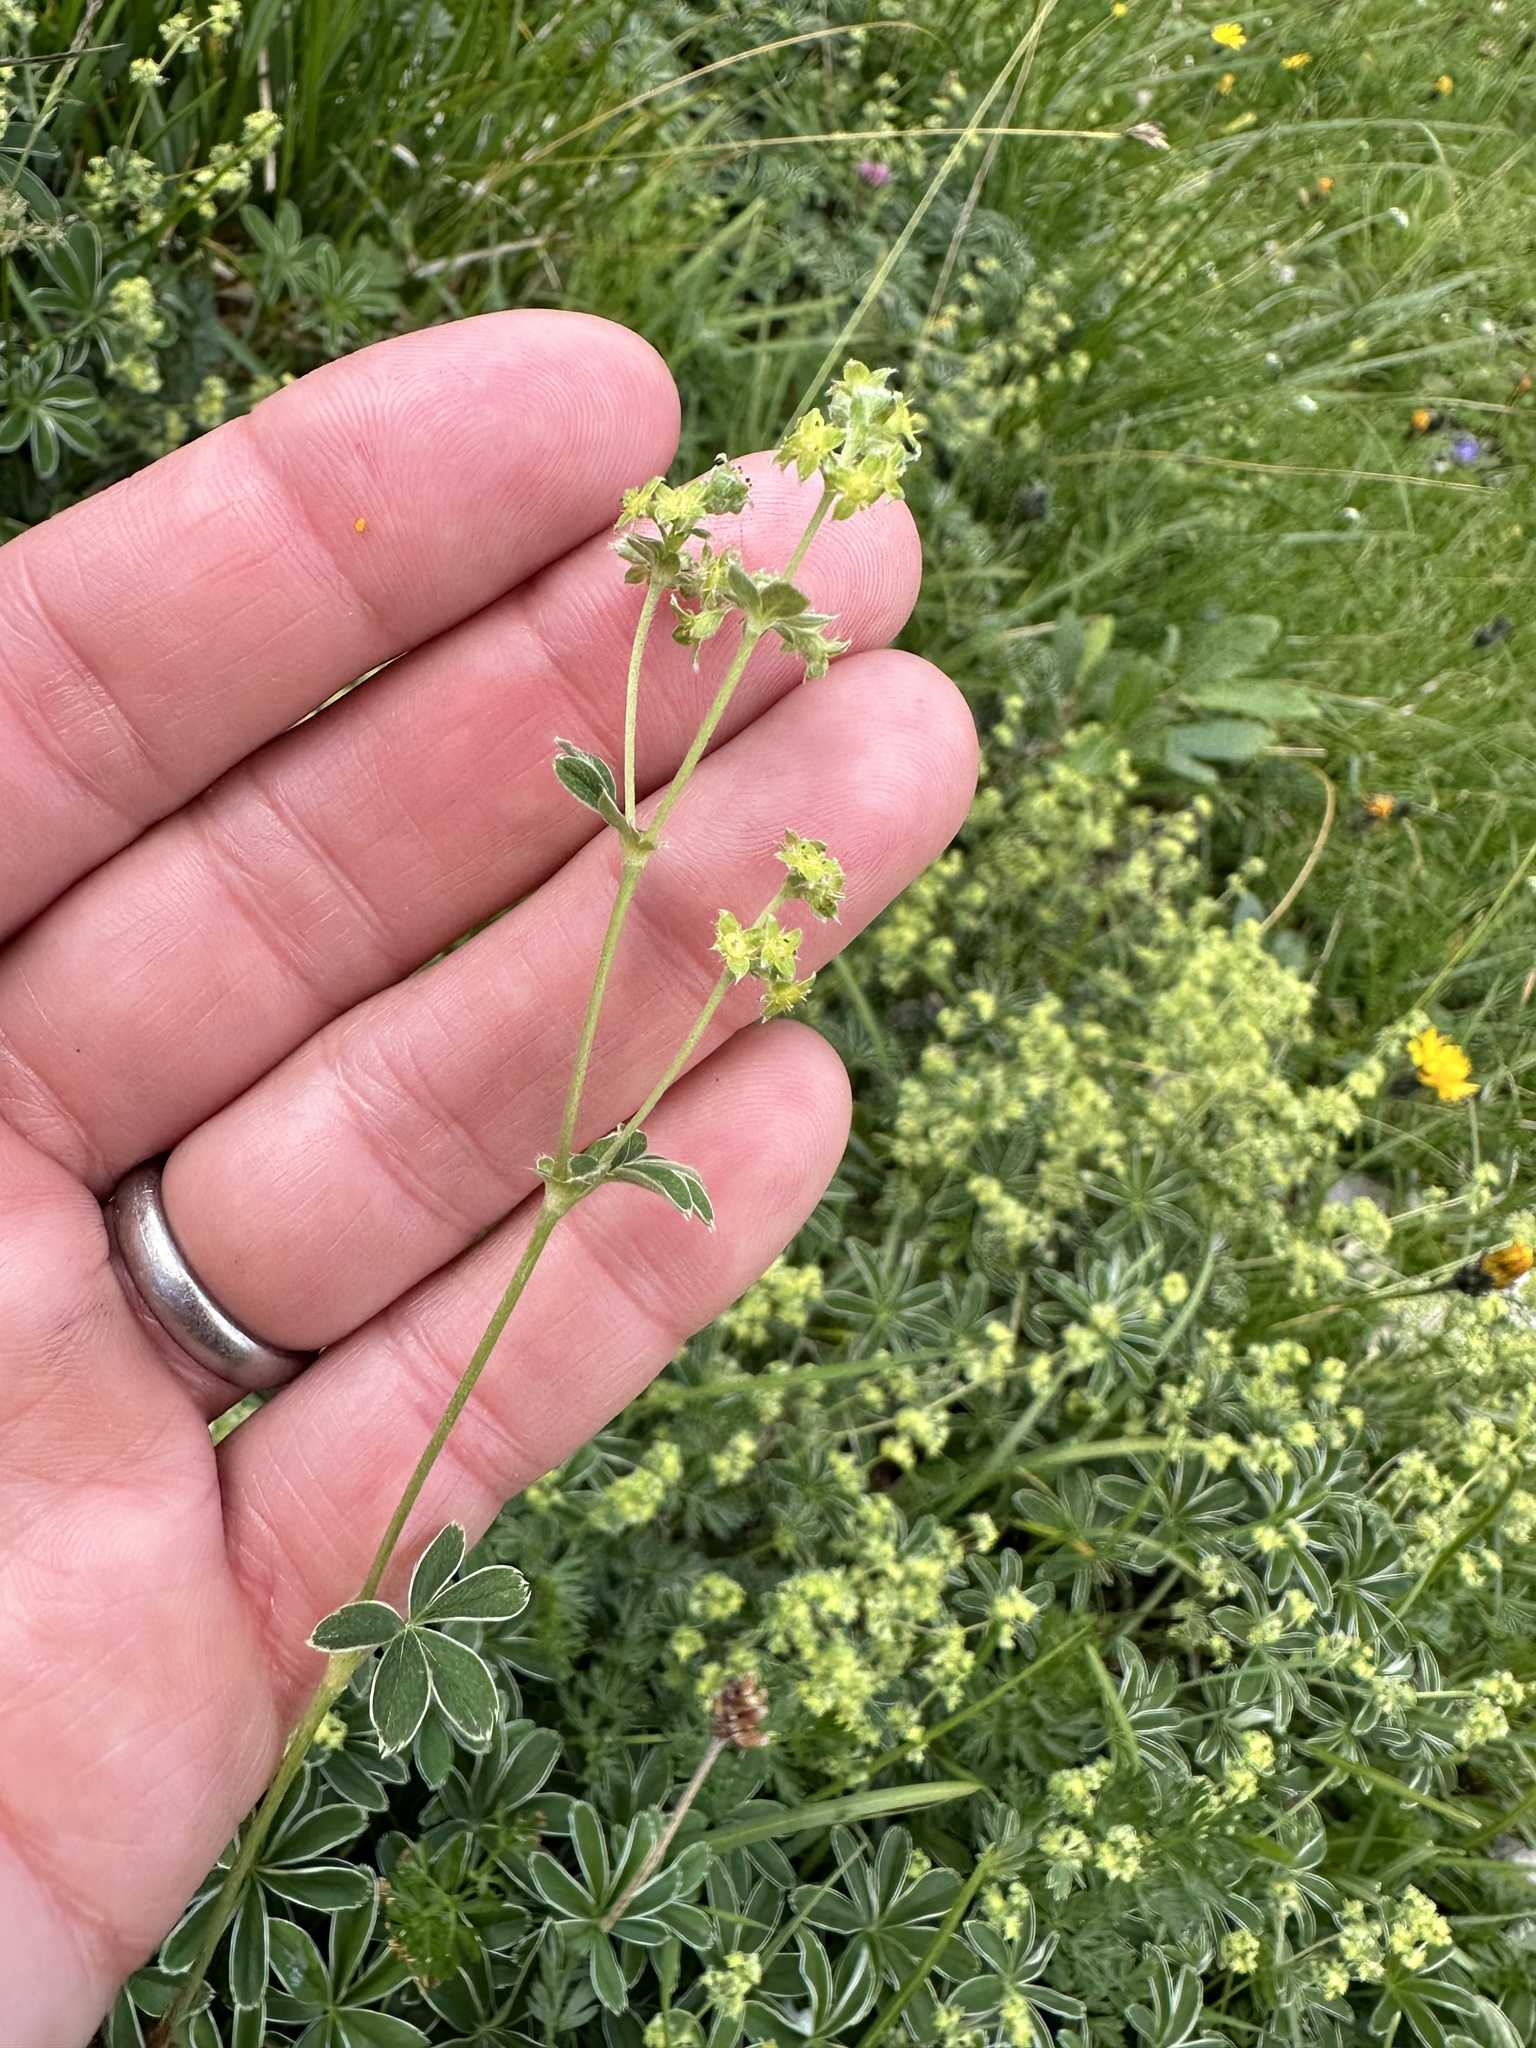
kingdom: Plantae
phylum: Tracheophyta
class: Magnoliopsida
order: Rosales
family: Rosaceae
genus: Alchemilla
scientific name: Alchemilla alpina
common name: Alpine lady's-mantle
